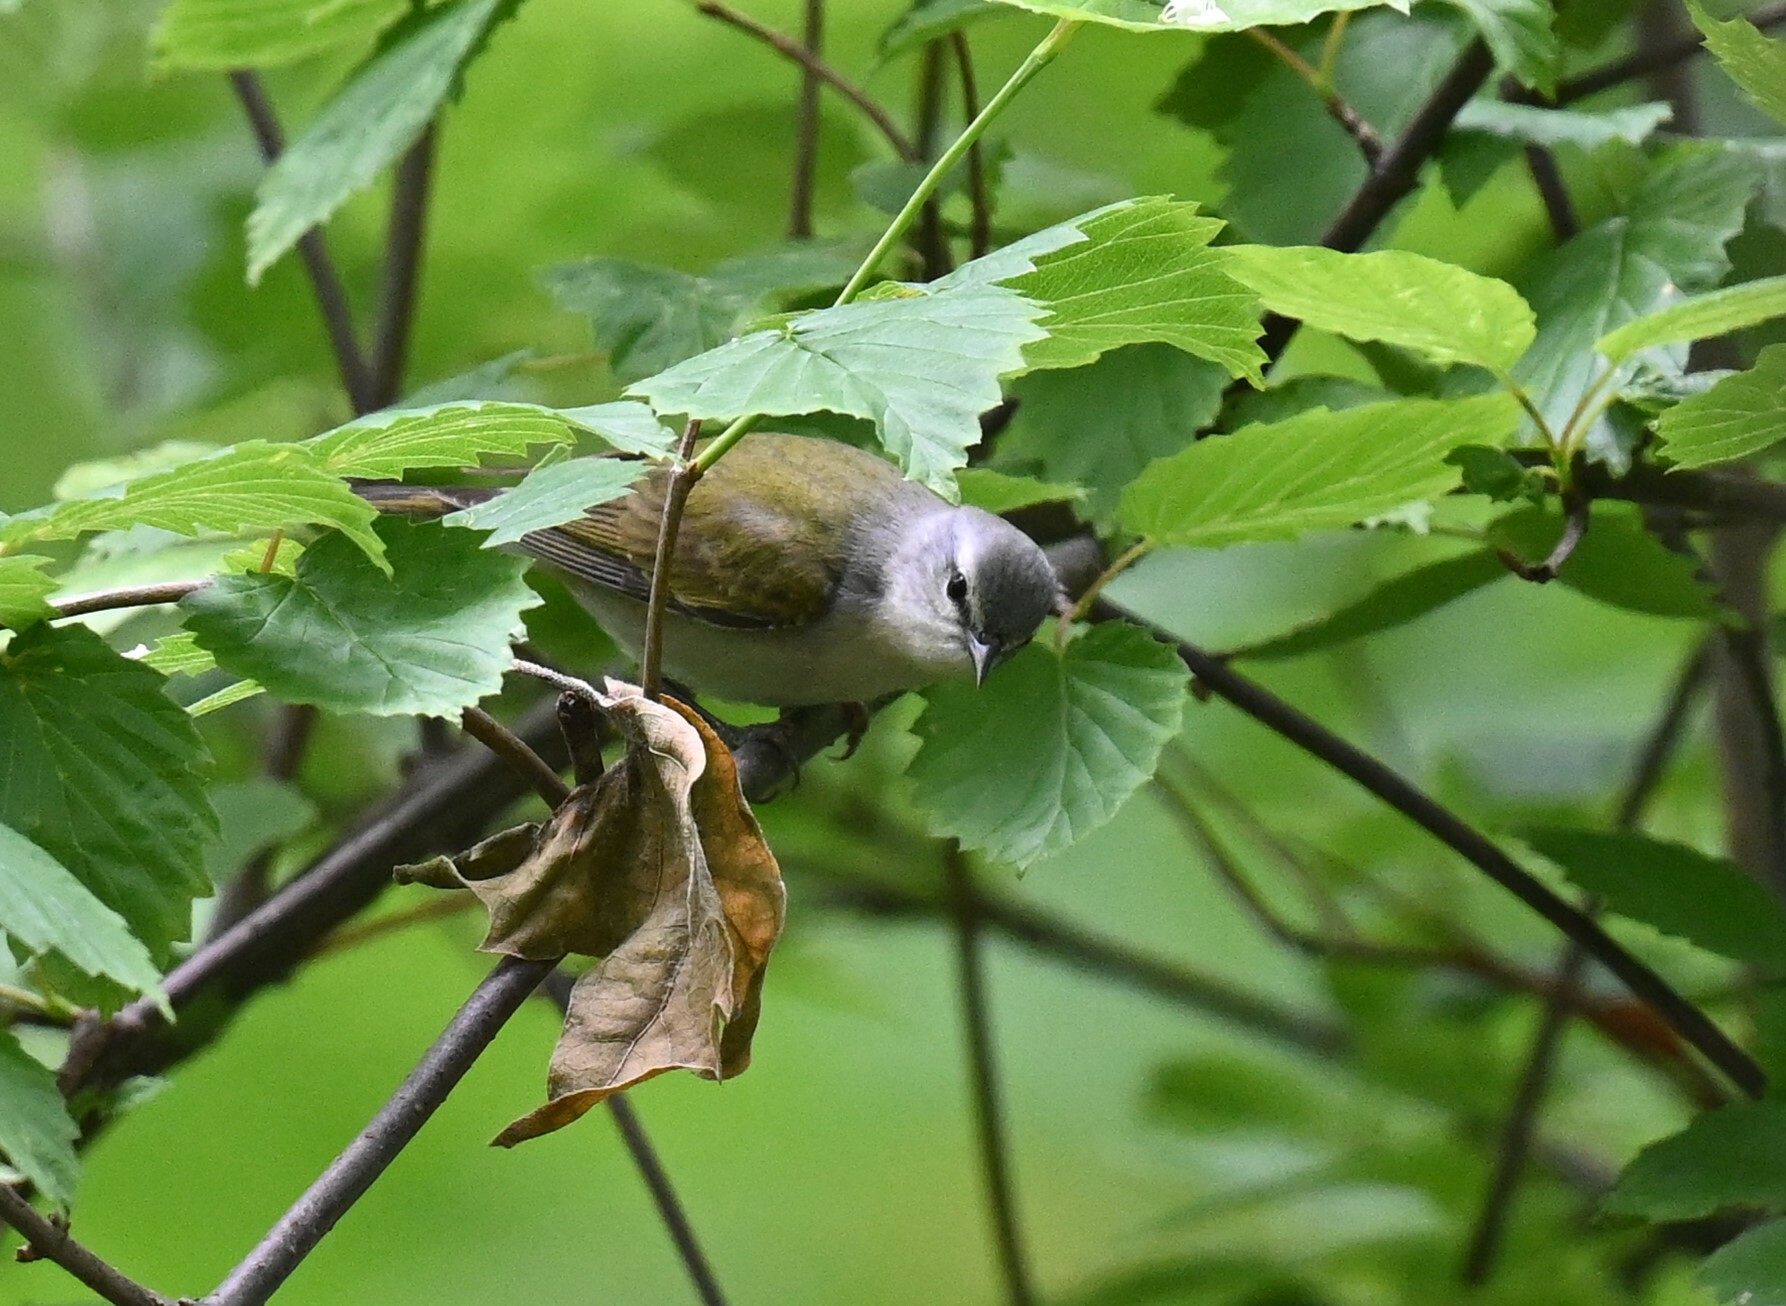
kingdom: Animalia
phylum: Chordata
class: Aves
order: Passeriformes
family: Parulidae
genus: Leiothlypis
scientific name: Leiothlypis peregrina
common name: Tennessee warbler
